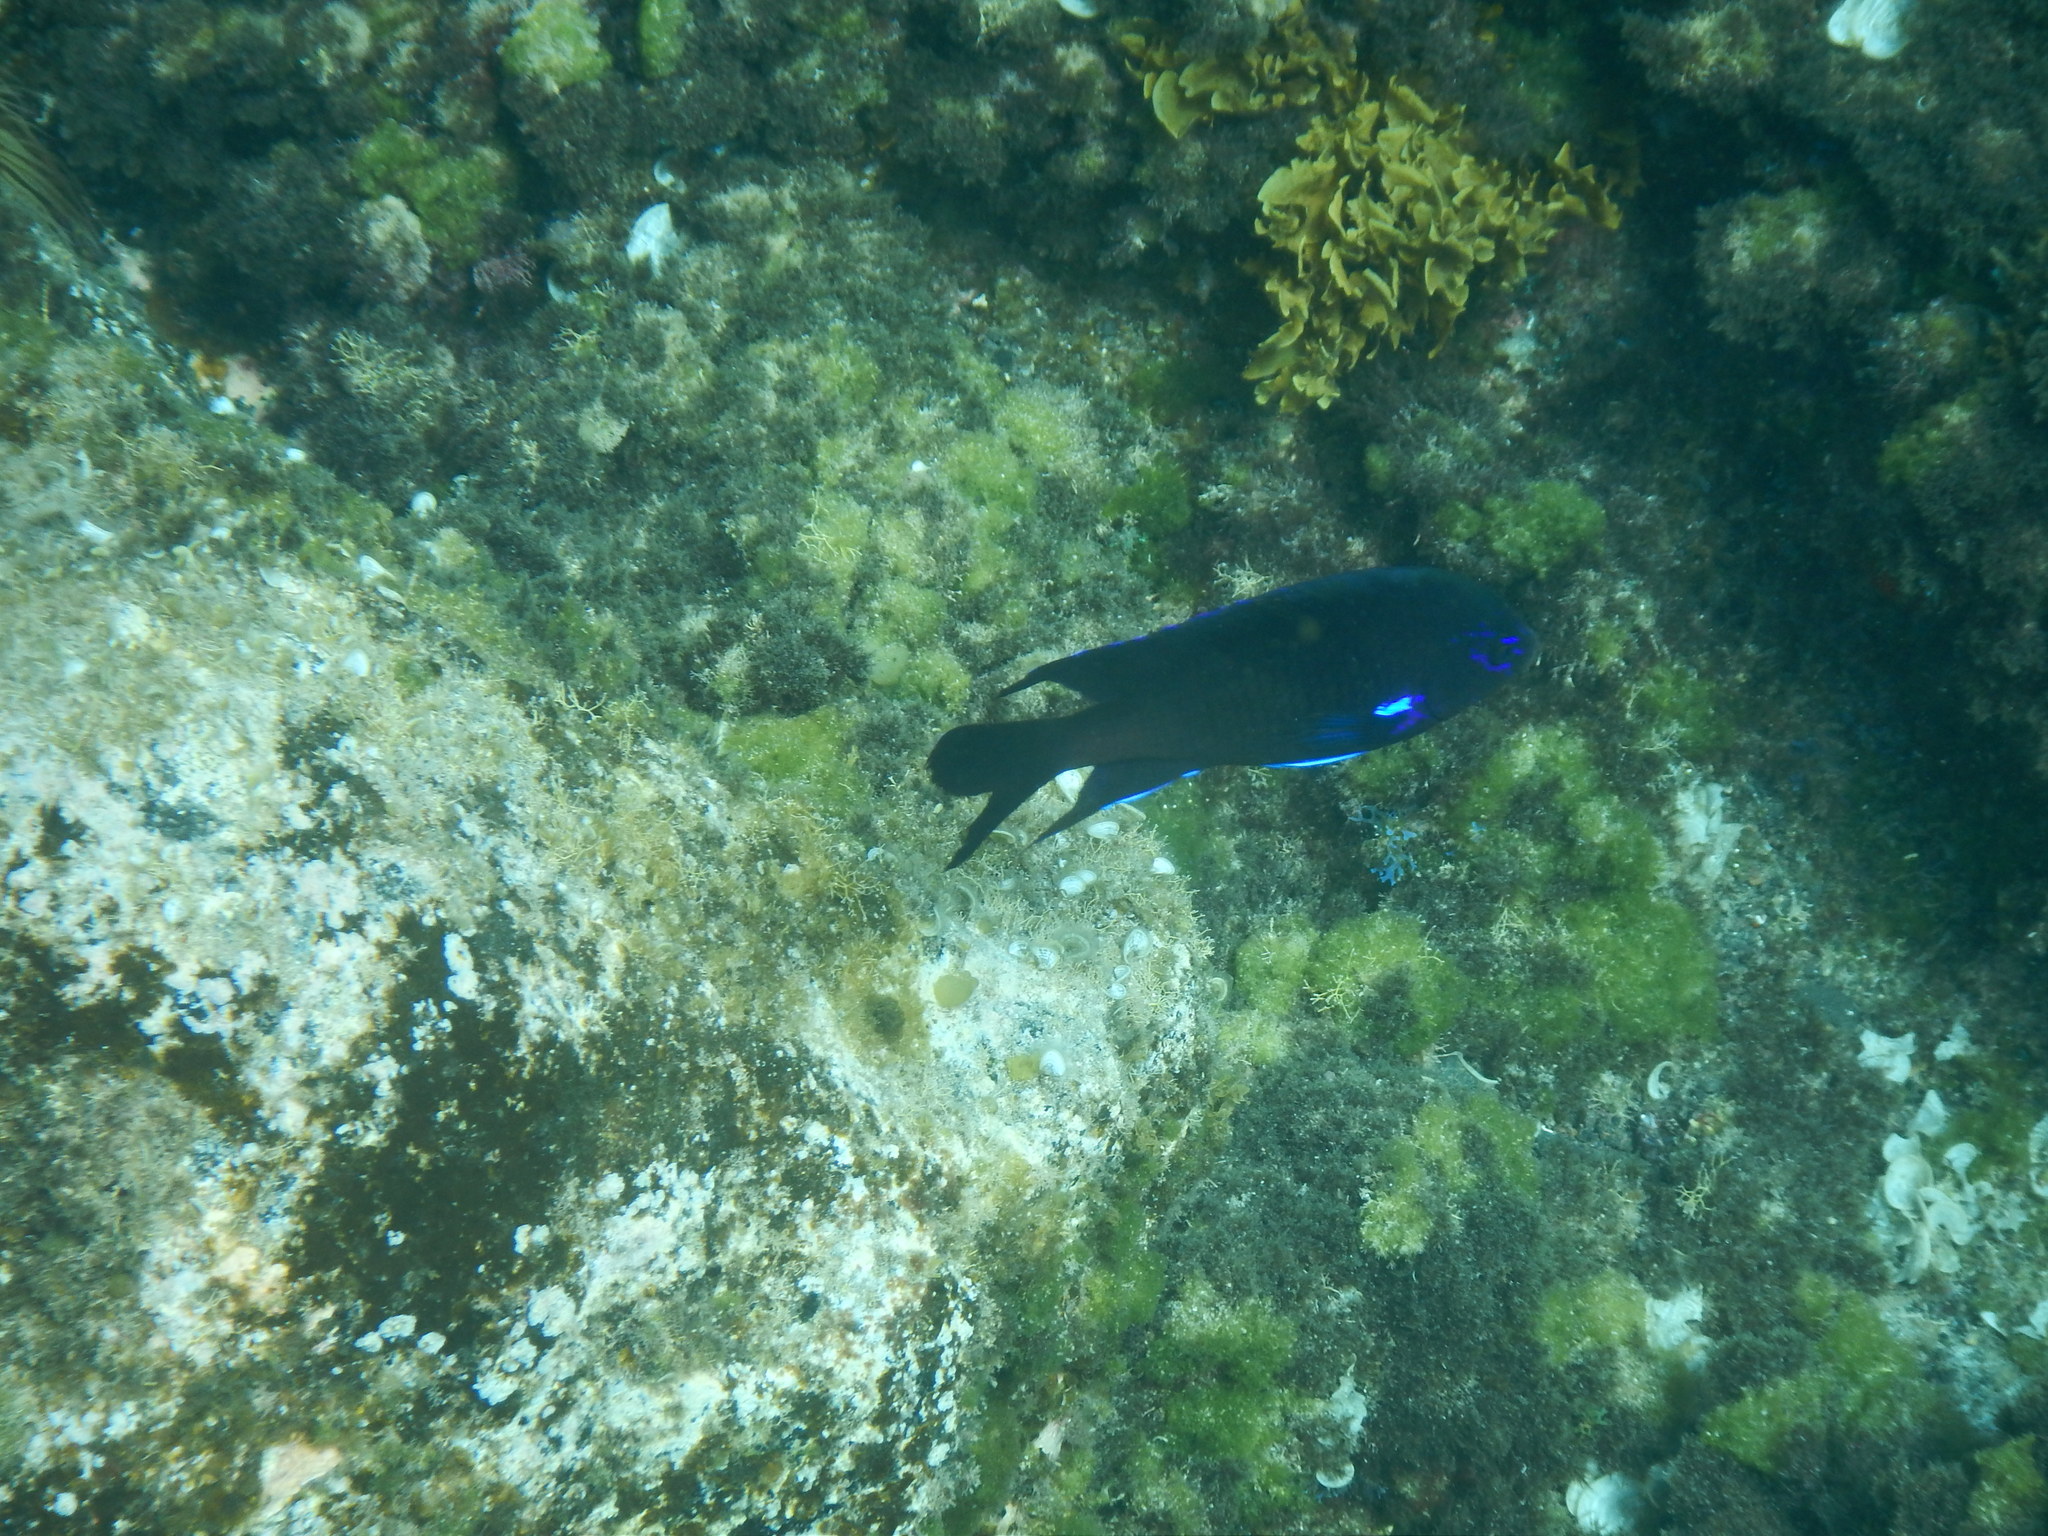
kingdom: Animalia
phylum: Chordata
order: Perciformes
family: Pomacentridae
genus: Similiparma
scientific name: Similiparma lurida
